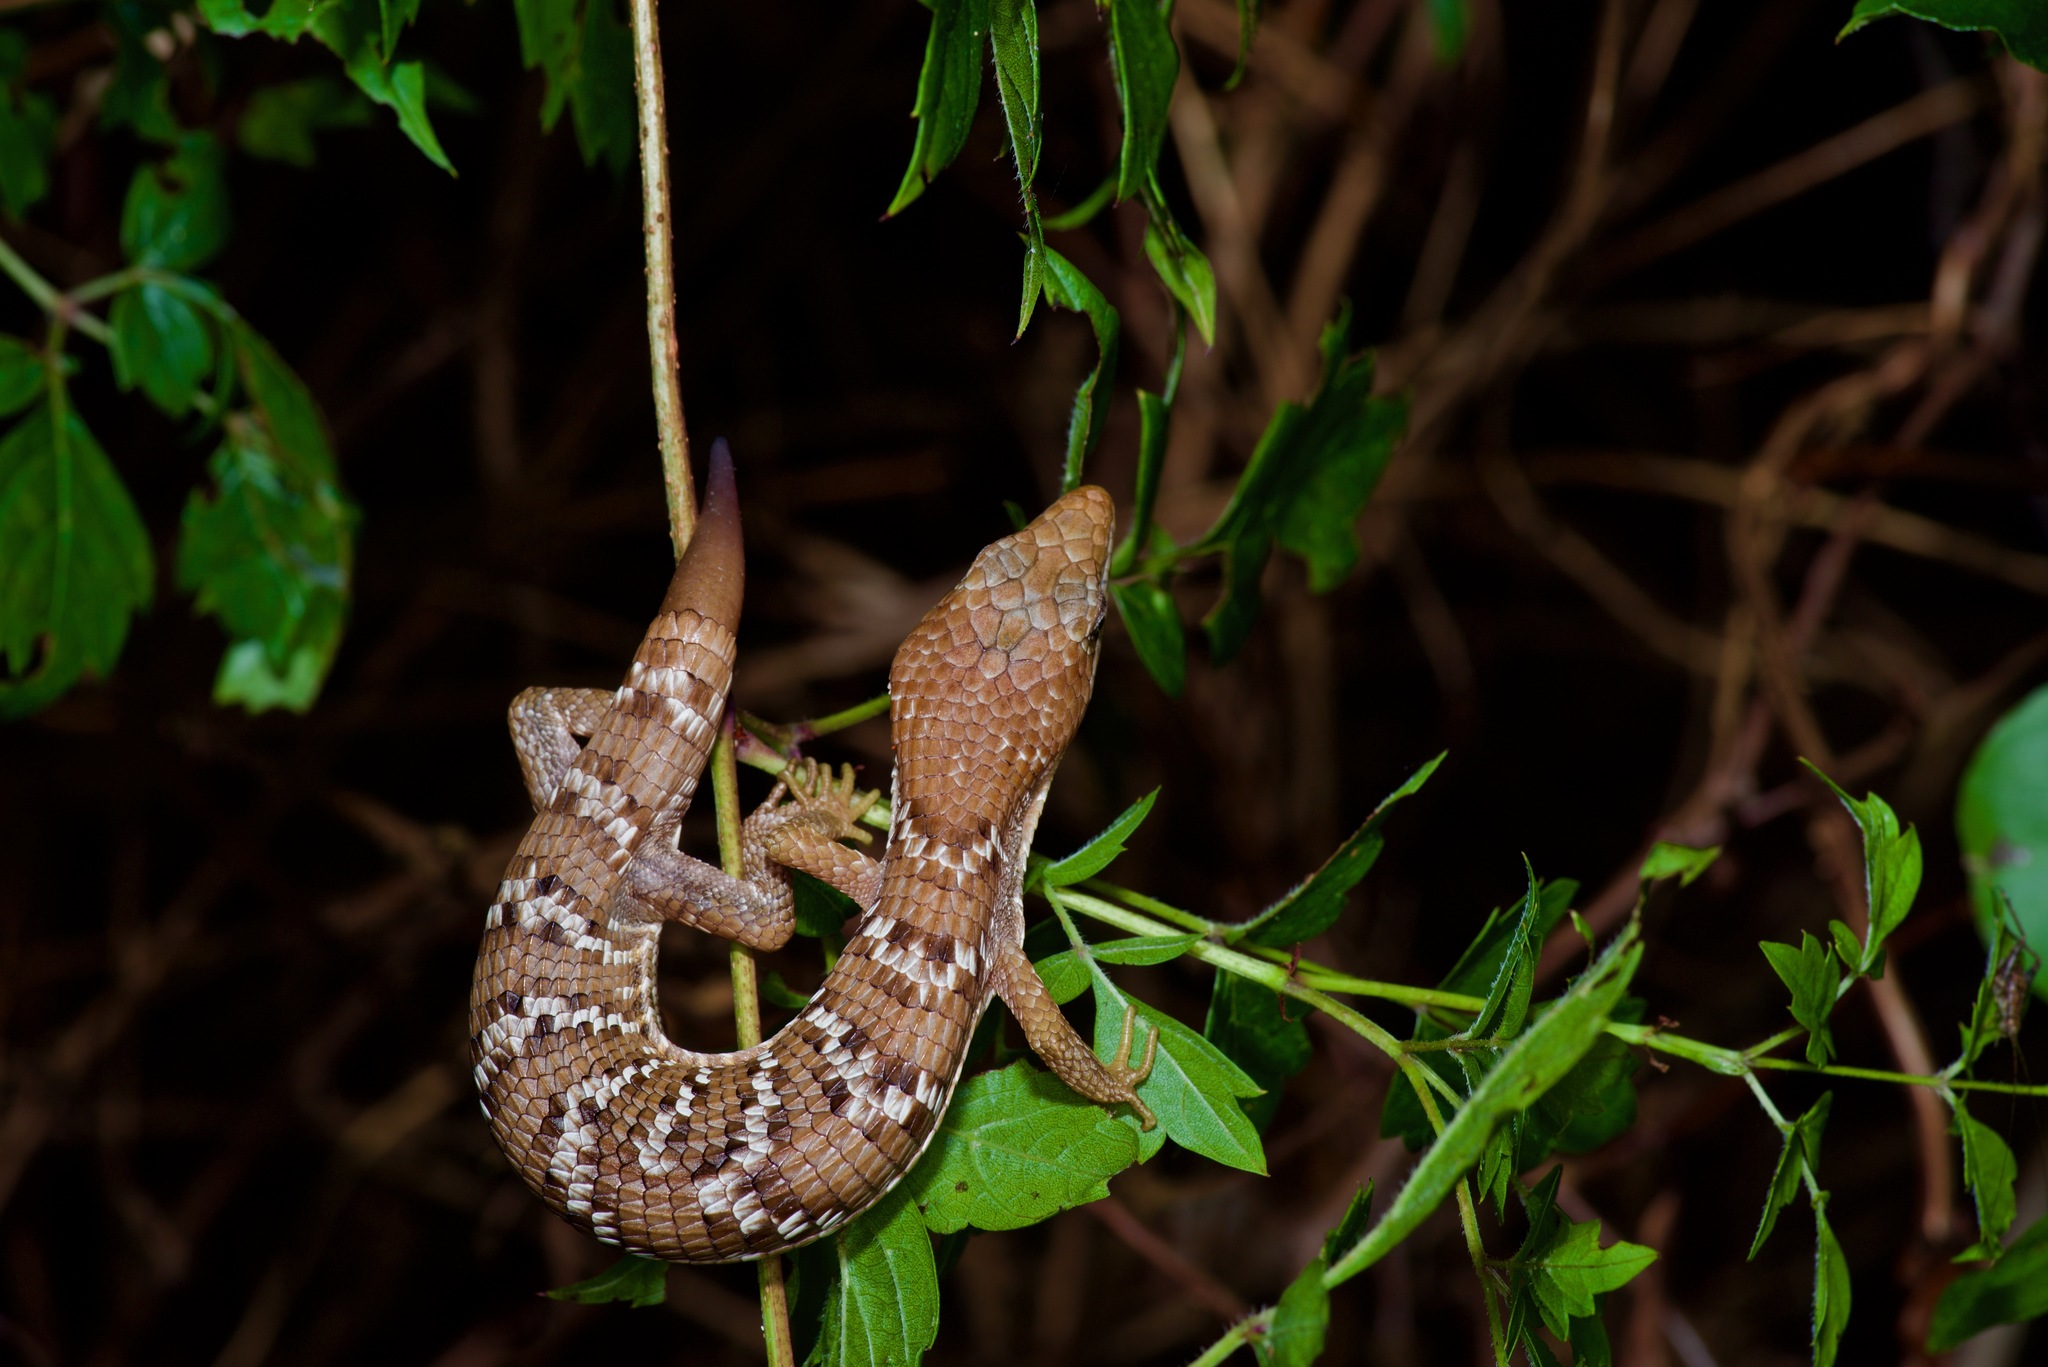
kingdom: Animalia
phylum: Chordata
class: Squamata
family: Anguidae
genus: Gerrhonotus
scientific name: Gerrhonotus infernalis
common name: Texas alligator lizard
